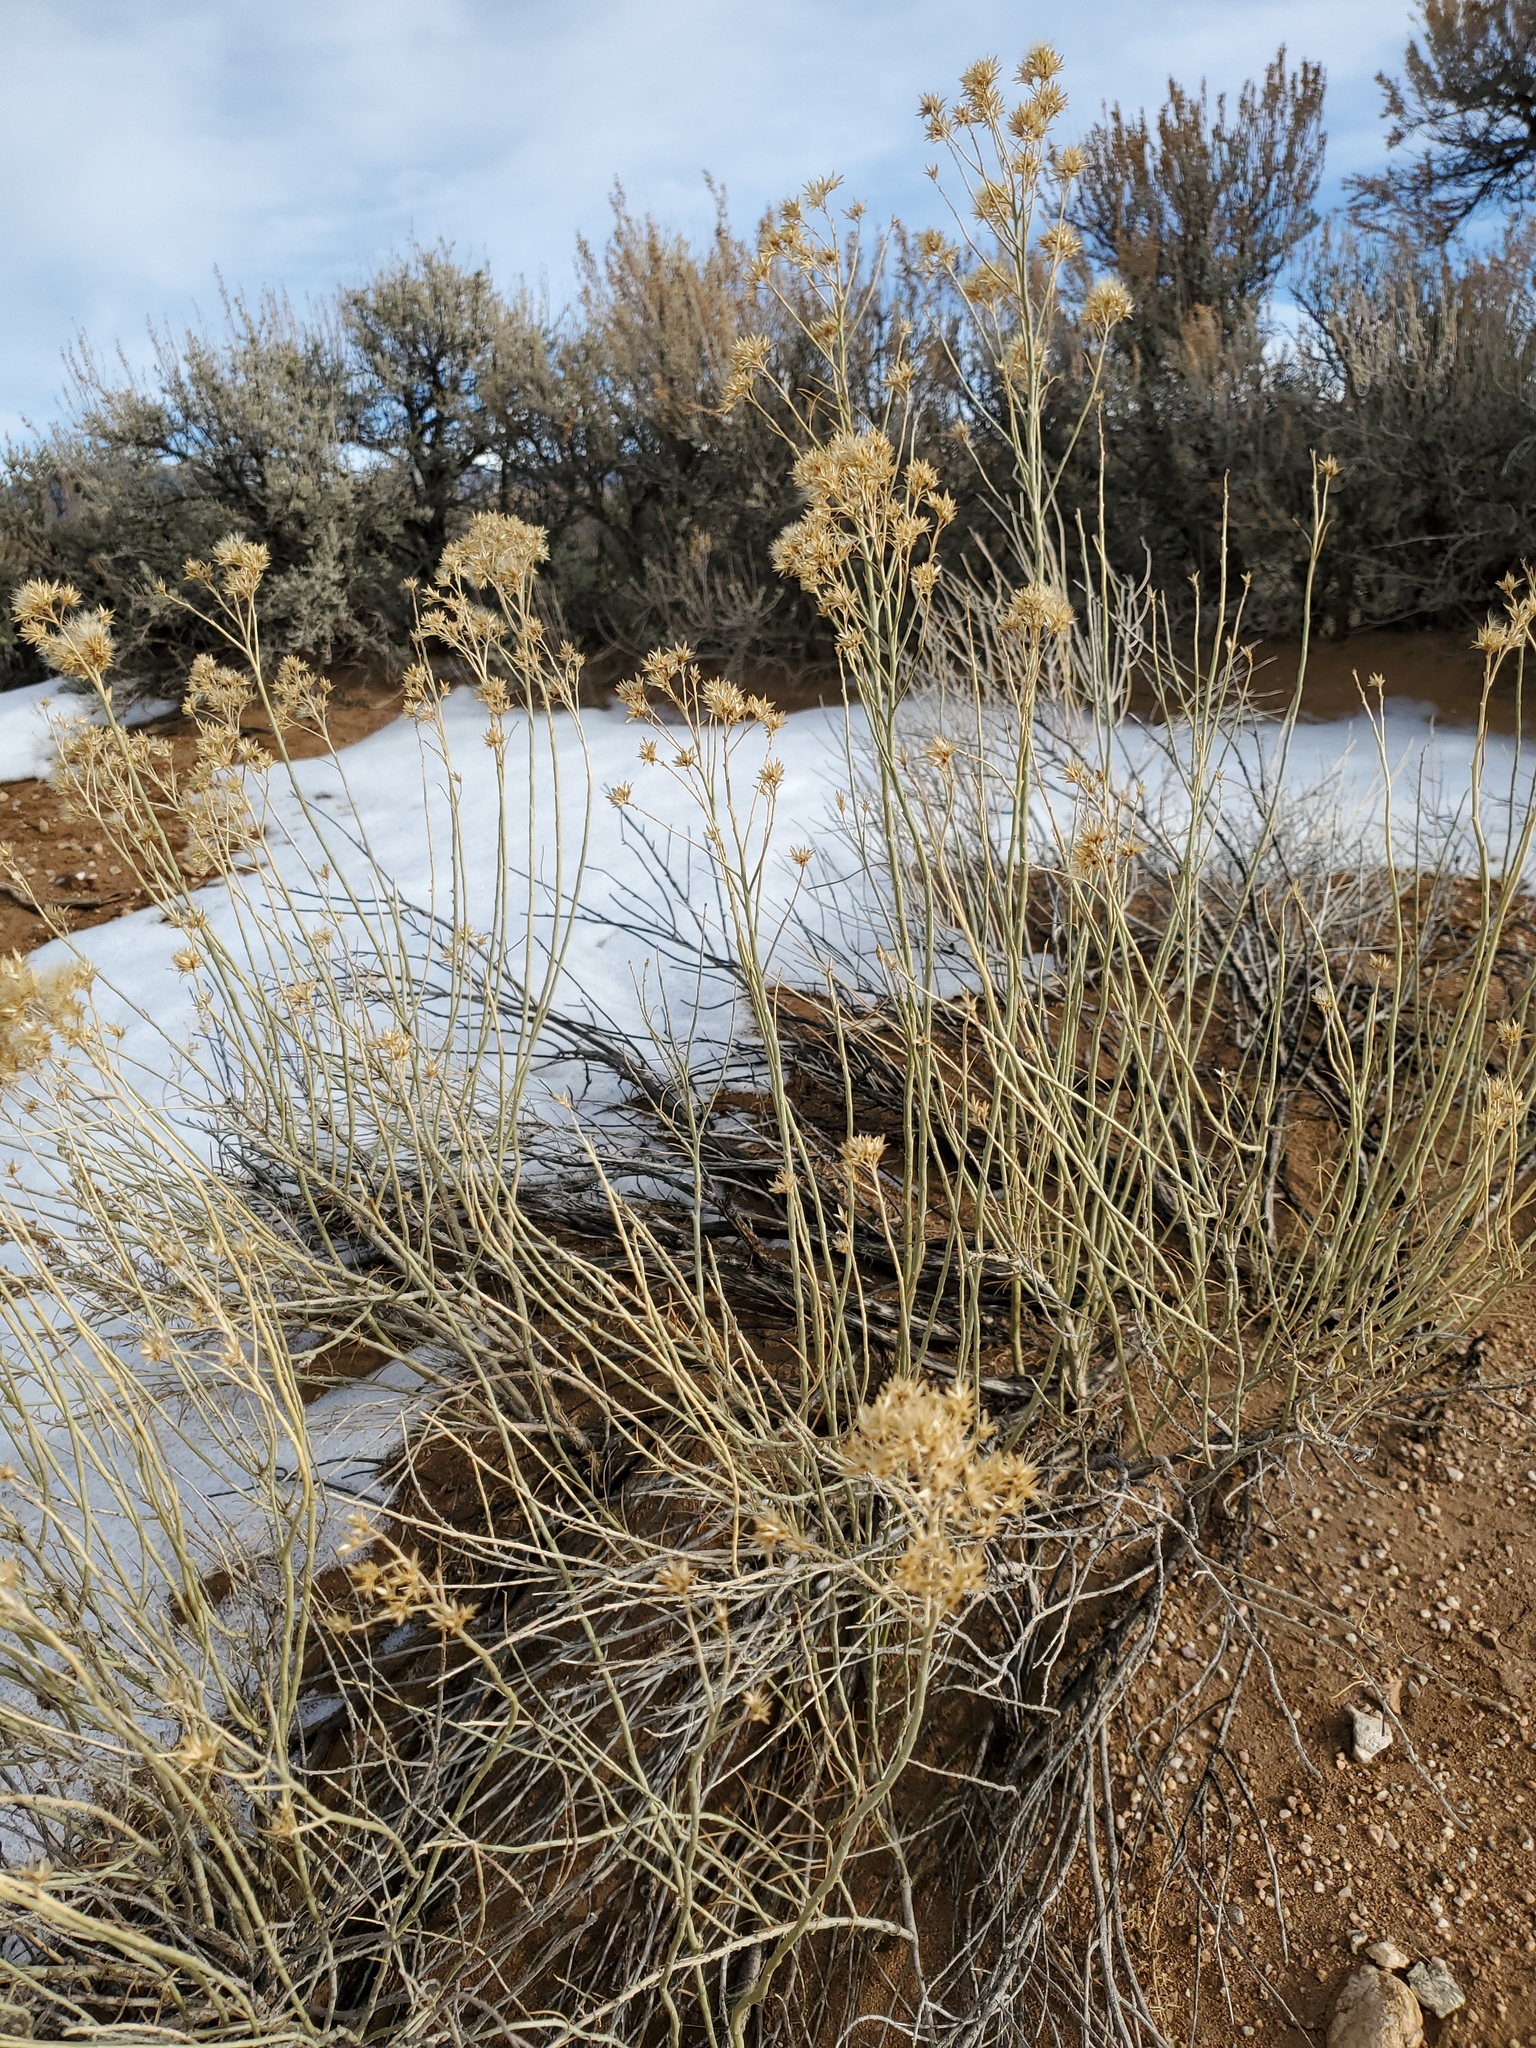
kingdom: Plantae
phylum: Tracheophyta
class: Magnoliopsida
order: Asterales
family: Asteraceae
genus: Ericameria
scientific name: Ericameria nauseosa
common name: Rubber rabbitbrush
